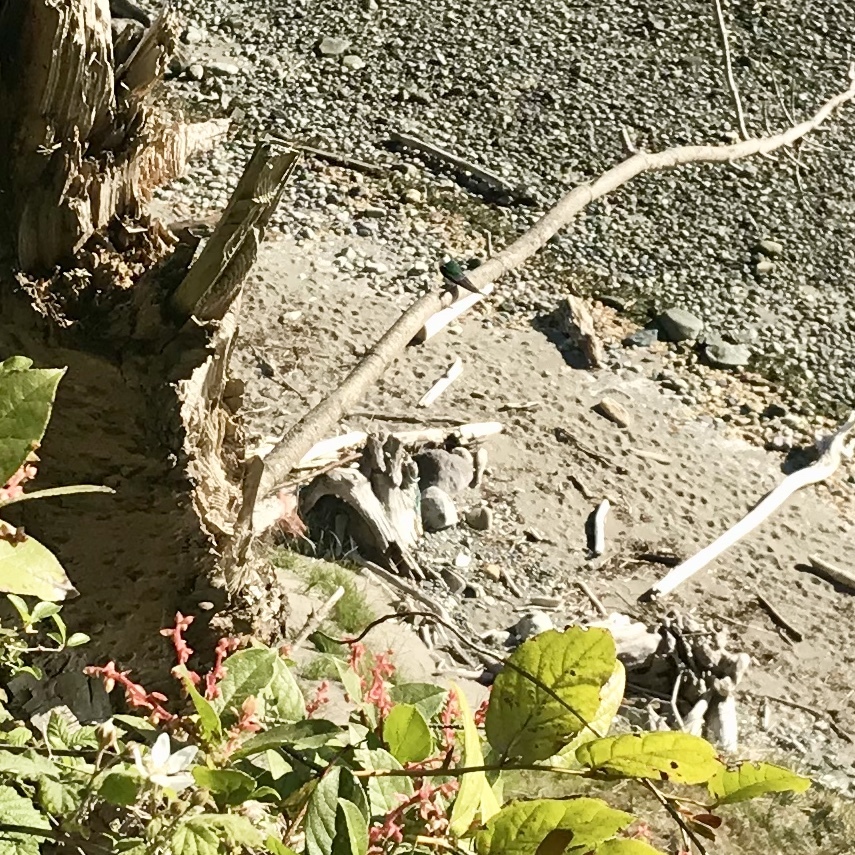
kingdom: Animalia
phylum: Chordata
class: Aves
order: Passeriformes
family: Hirundinidae
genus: Tachycineta
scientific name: Tachycineta thalassina
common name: Violet-green swallow
